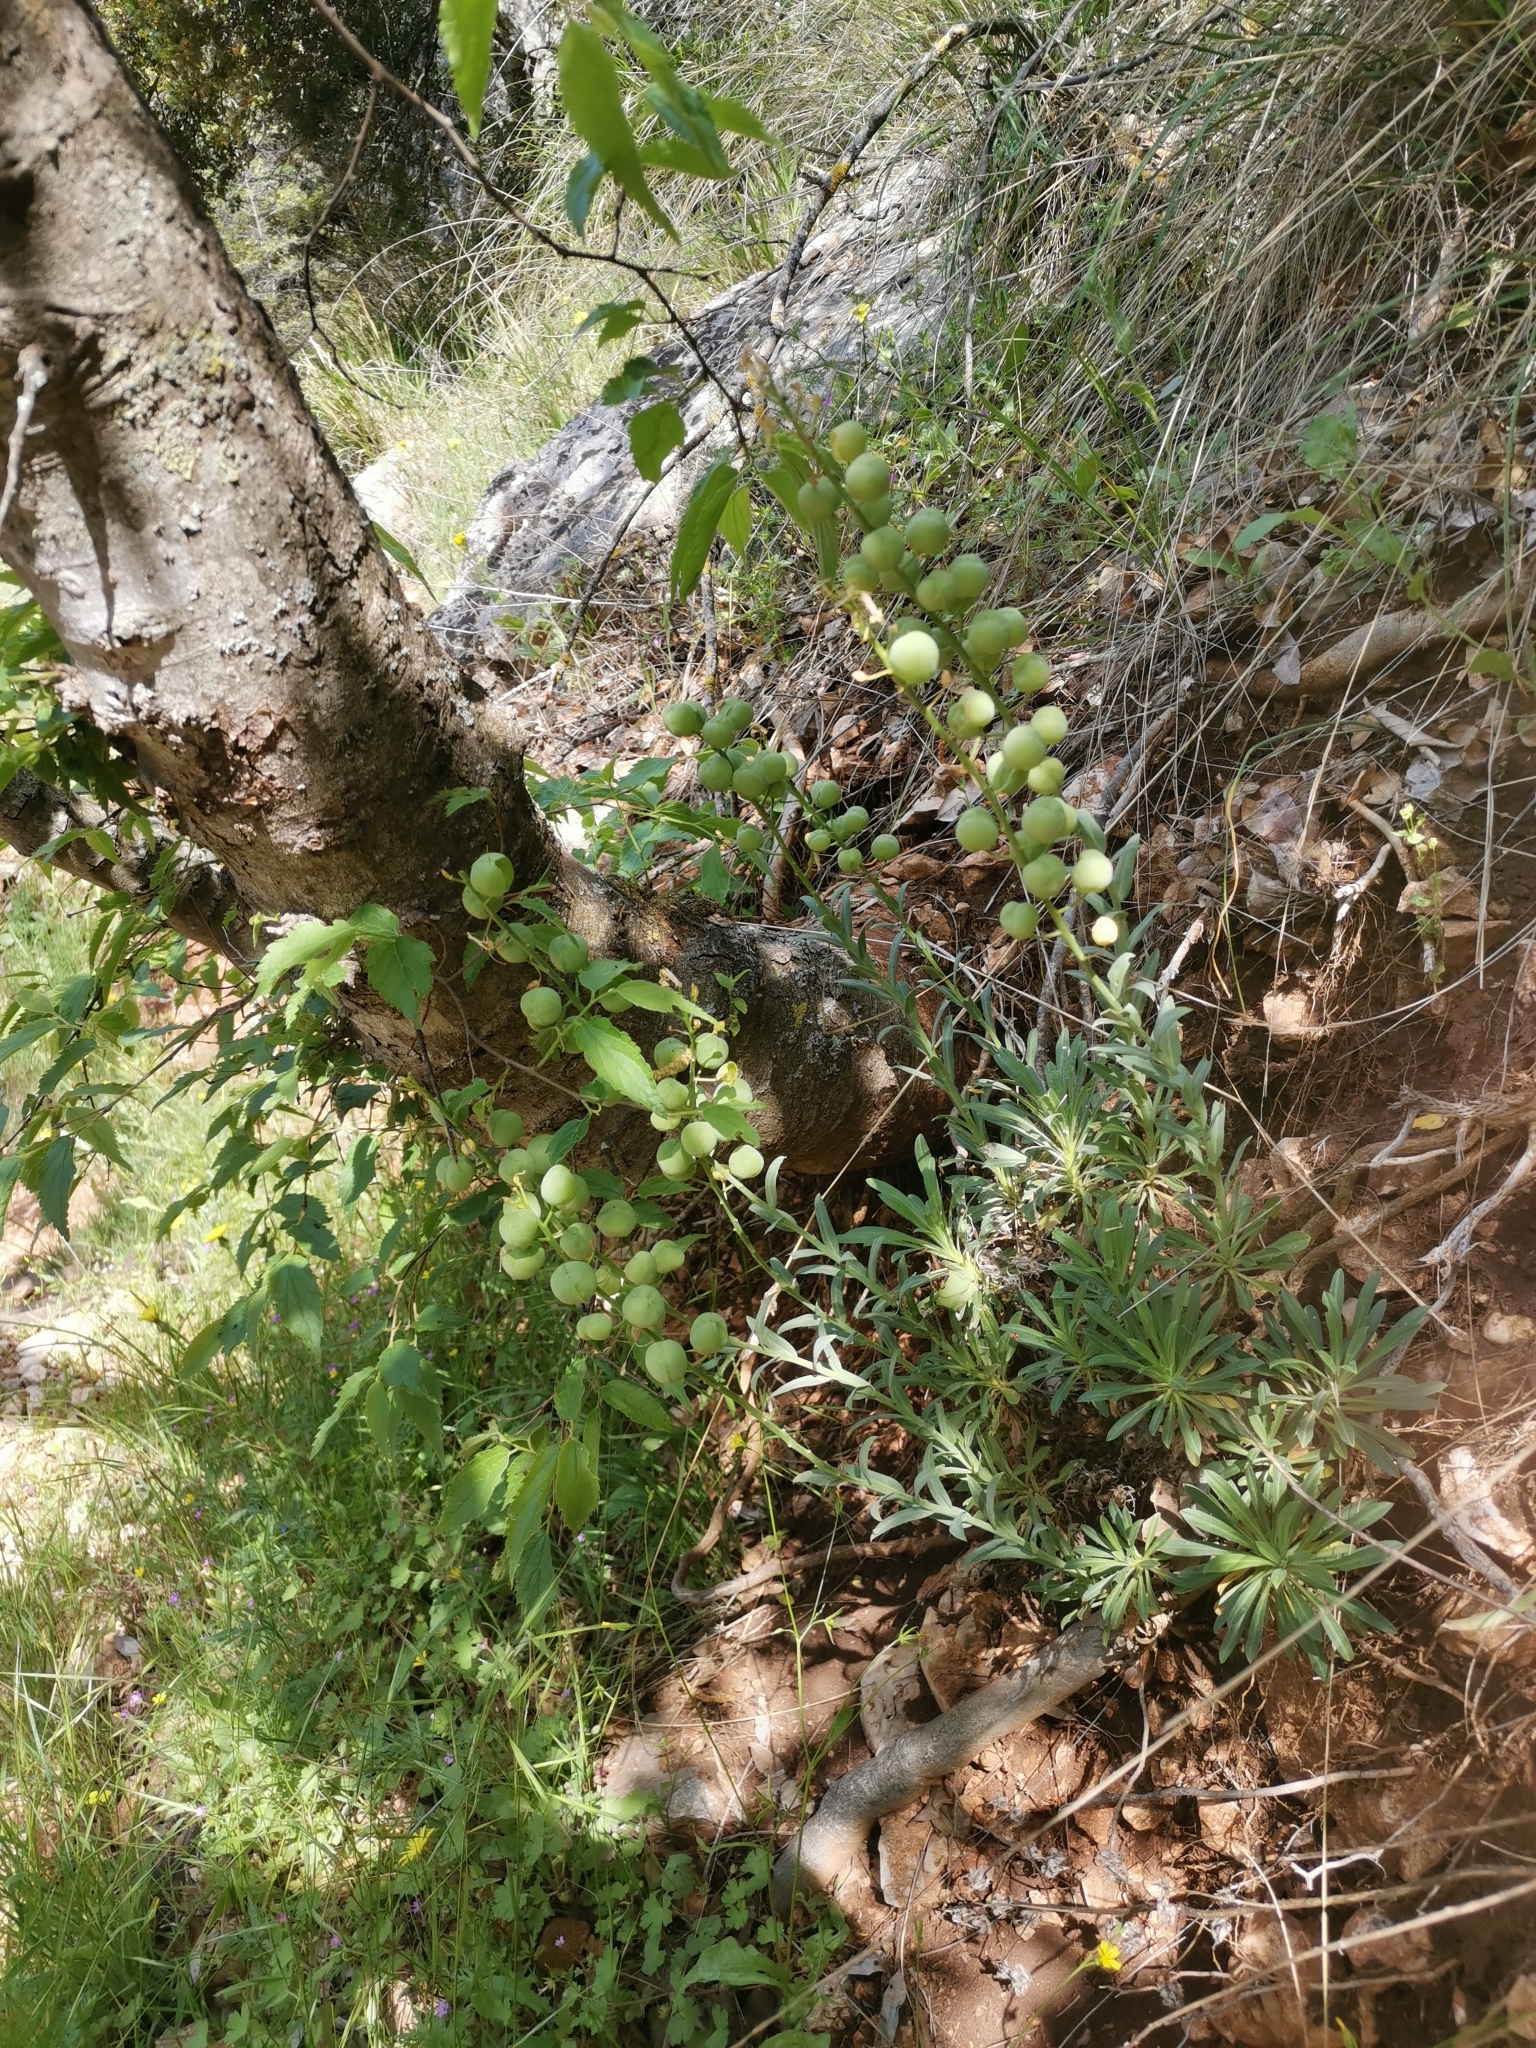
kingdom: Plantae
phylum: Tracheophyta
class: Magnoliopsida
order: Brassicales
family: Brassicaceae
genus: Alyssoides
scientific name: Alyssoides utriculata
